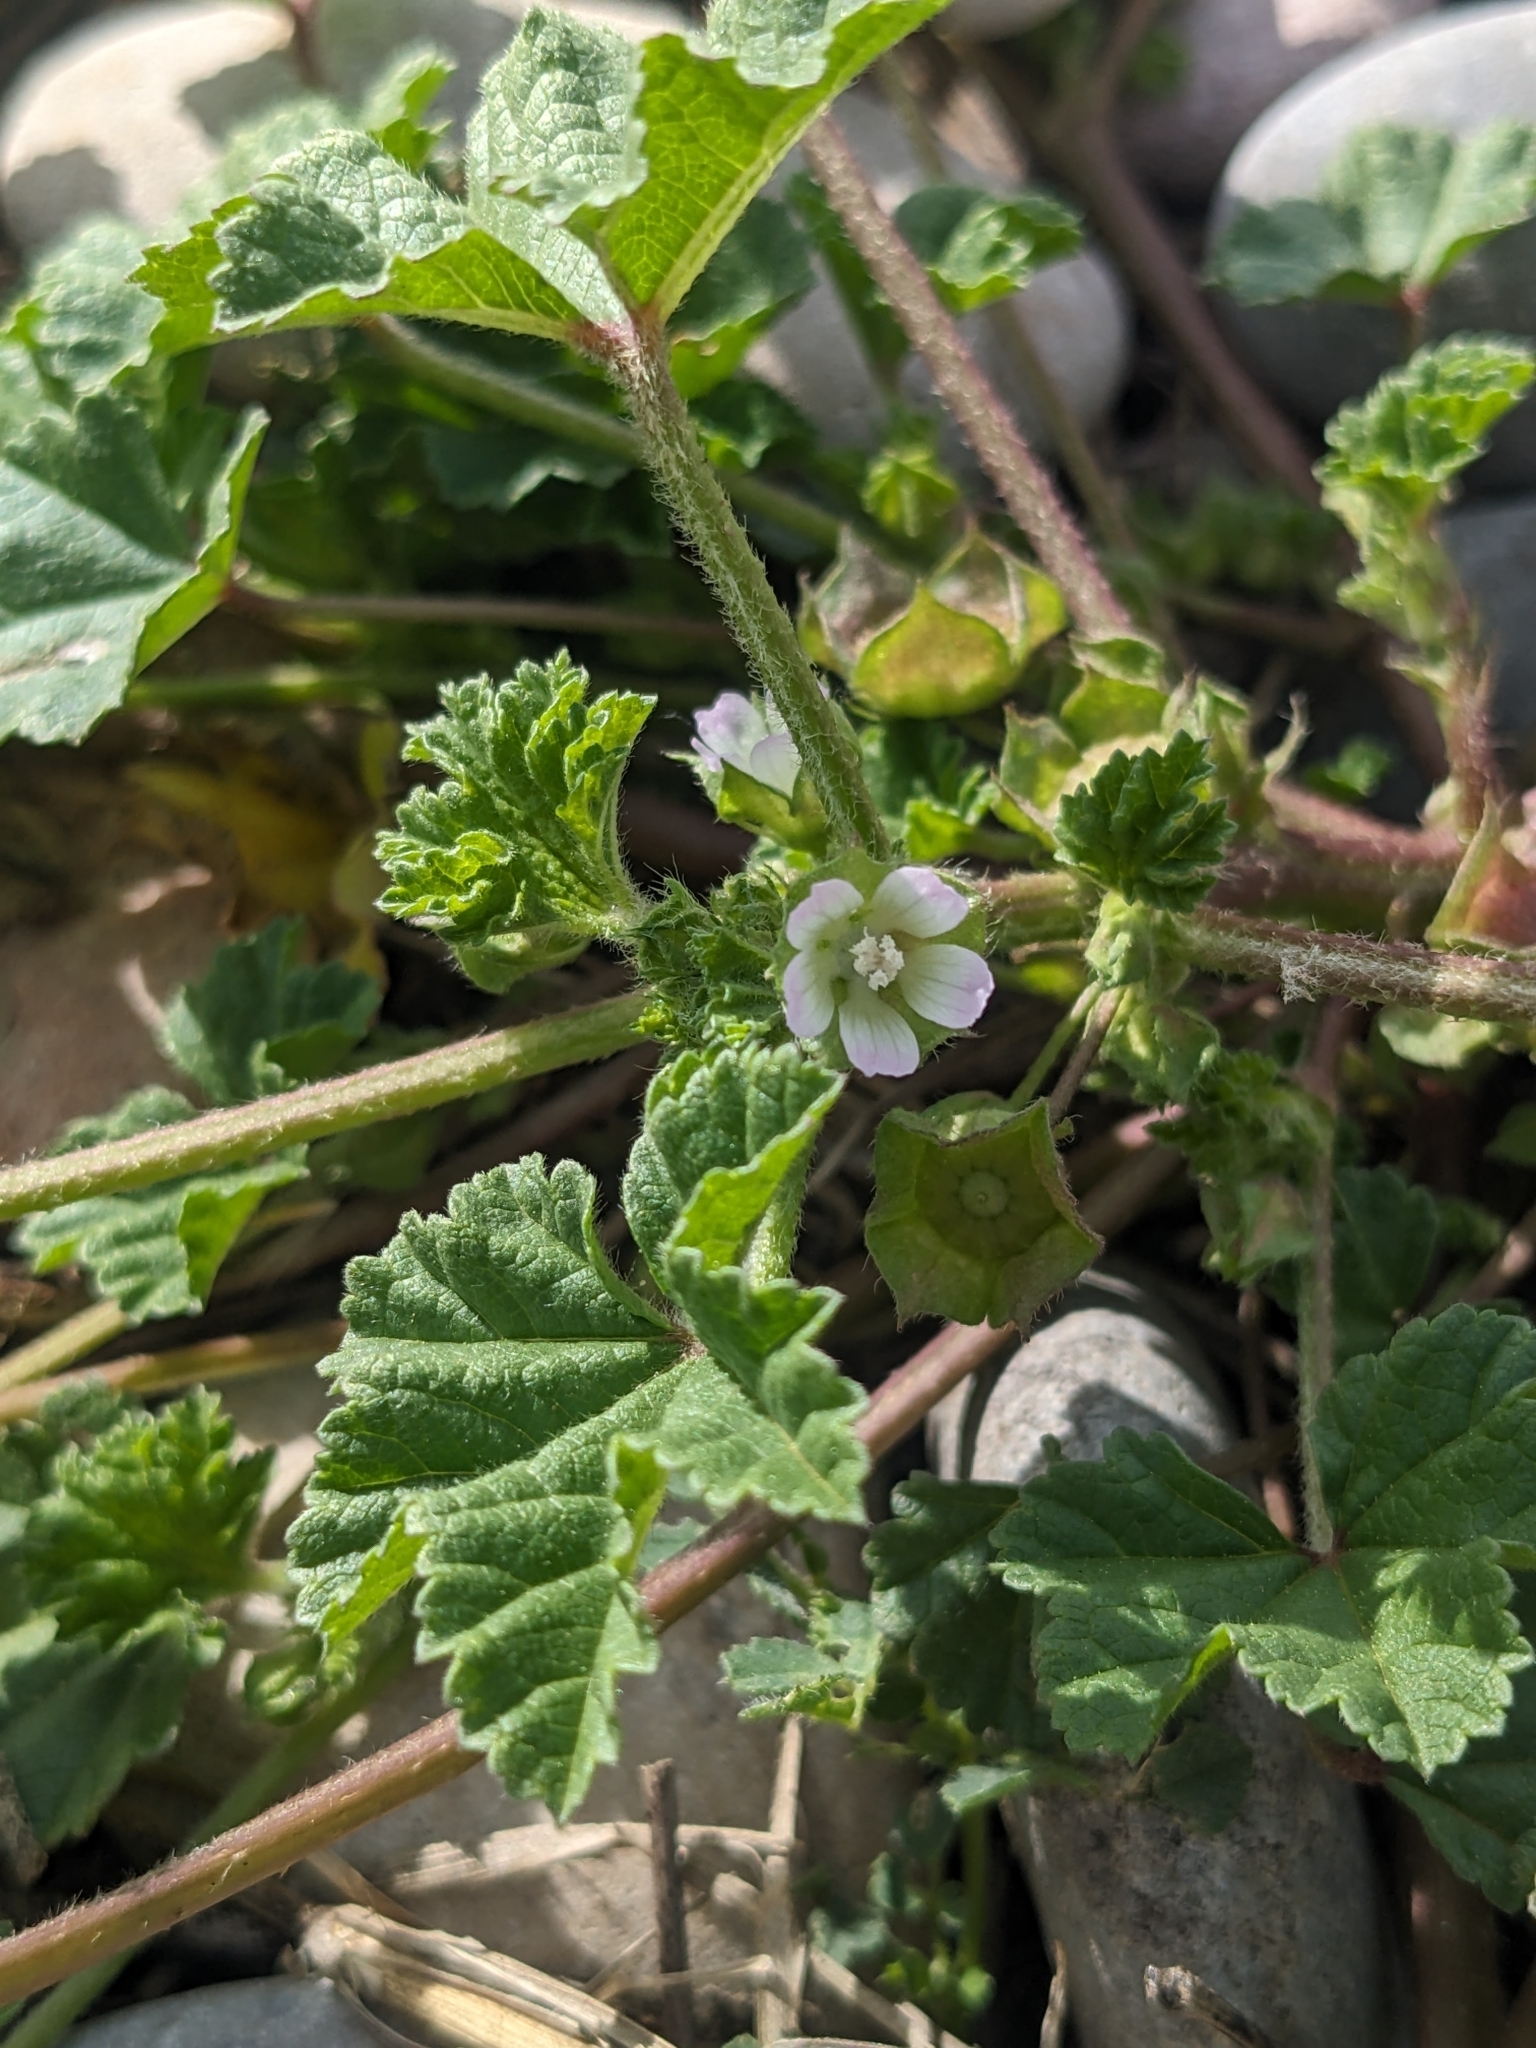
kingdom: Plantae
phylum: Tracheophyta
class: Magnoliopsida
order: Malvales
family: Malvaceae
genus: Malva
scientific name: Malva parviflora
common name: Least mallow
